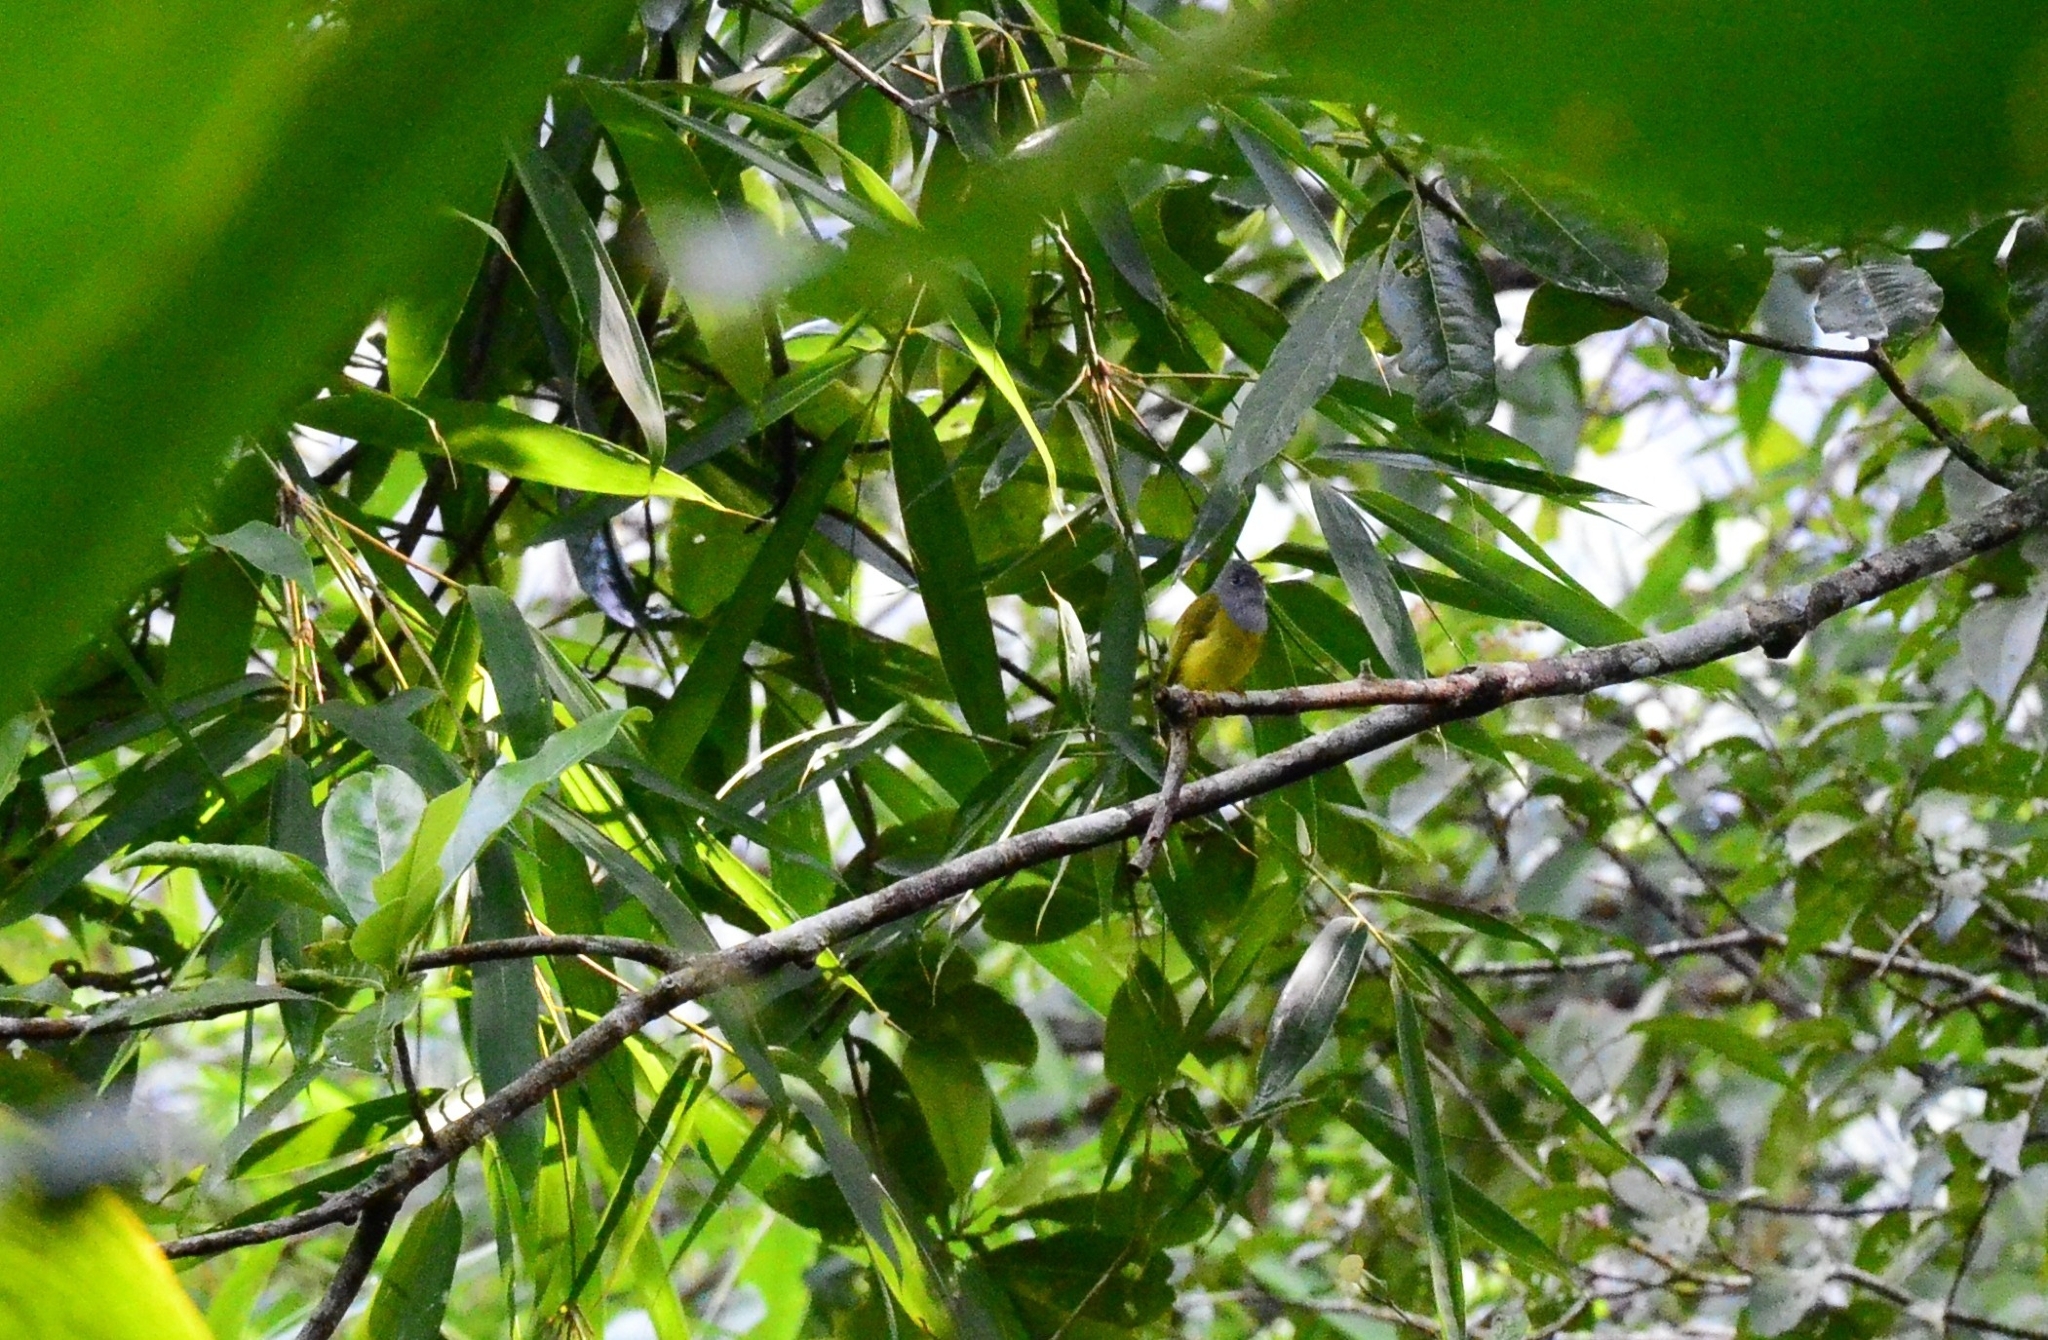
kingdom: Animalia
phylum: Chordata
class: Aves
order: Passeriformes
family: Stenostiridae
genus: Culicicapa
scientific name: Culicicapa ceylonensis
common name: Grey-headed canary-flycatcher
